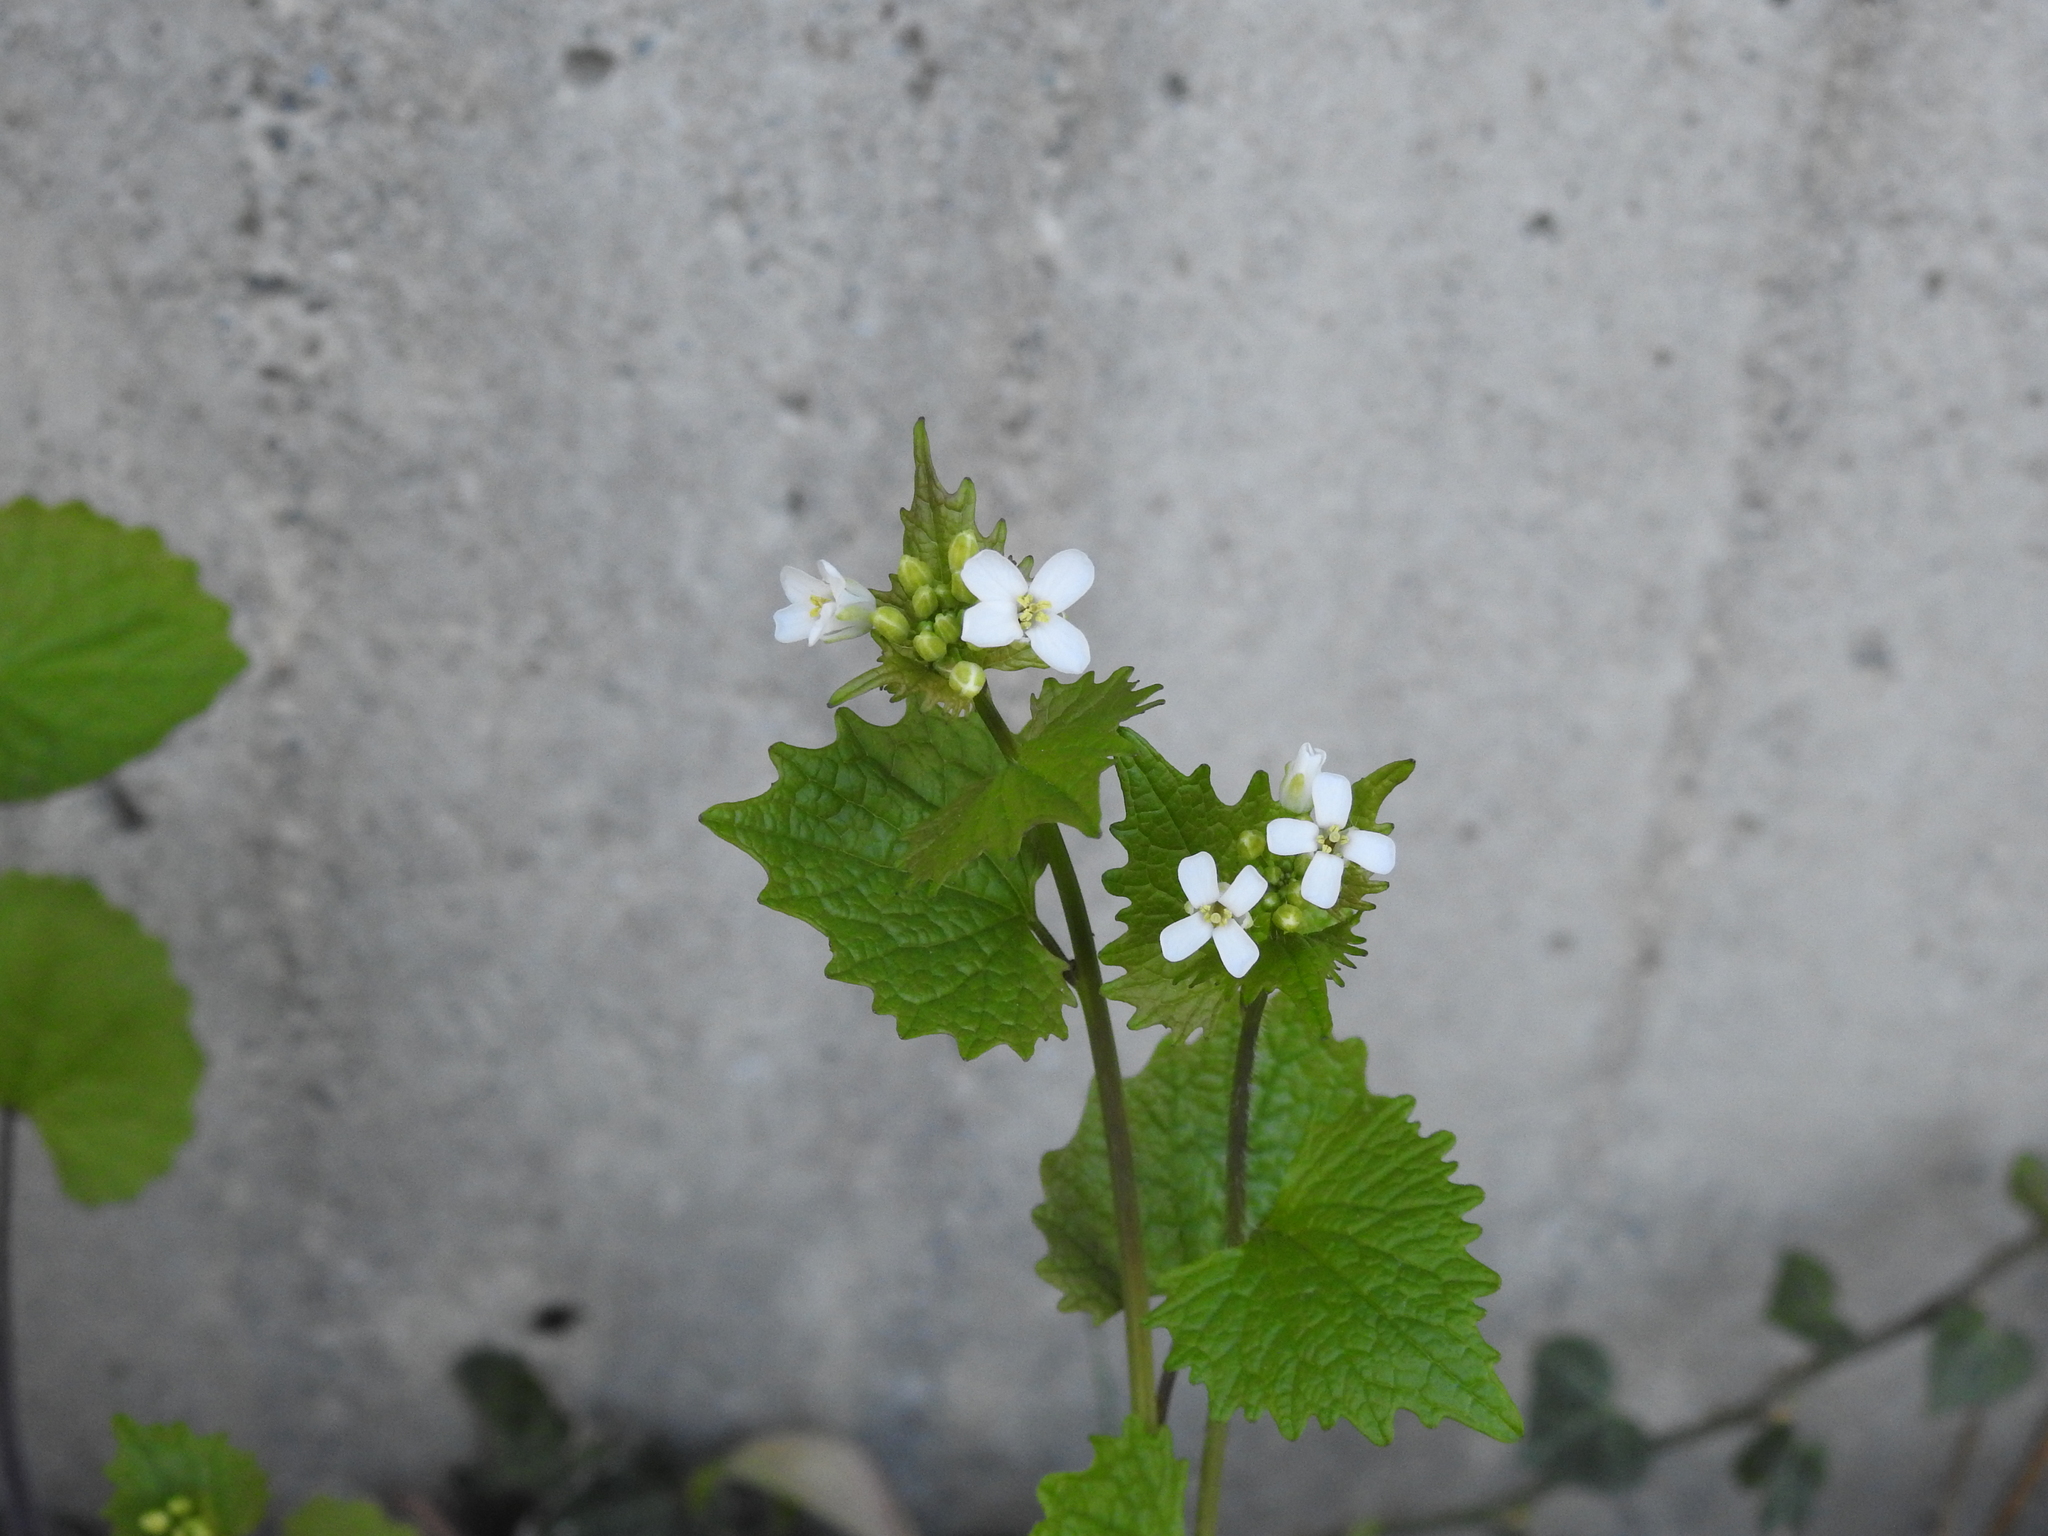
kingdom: Plantae
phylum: Tracheophyta
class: Magnoliopsida
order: Brassicales
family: Brassicaceae
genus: Alliaria
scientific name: Alliaria petiolata
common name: Garlic mustard
